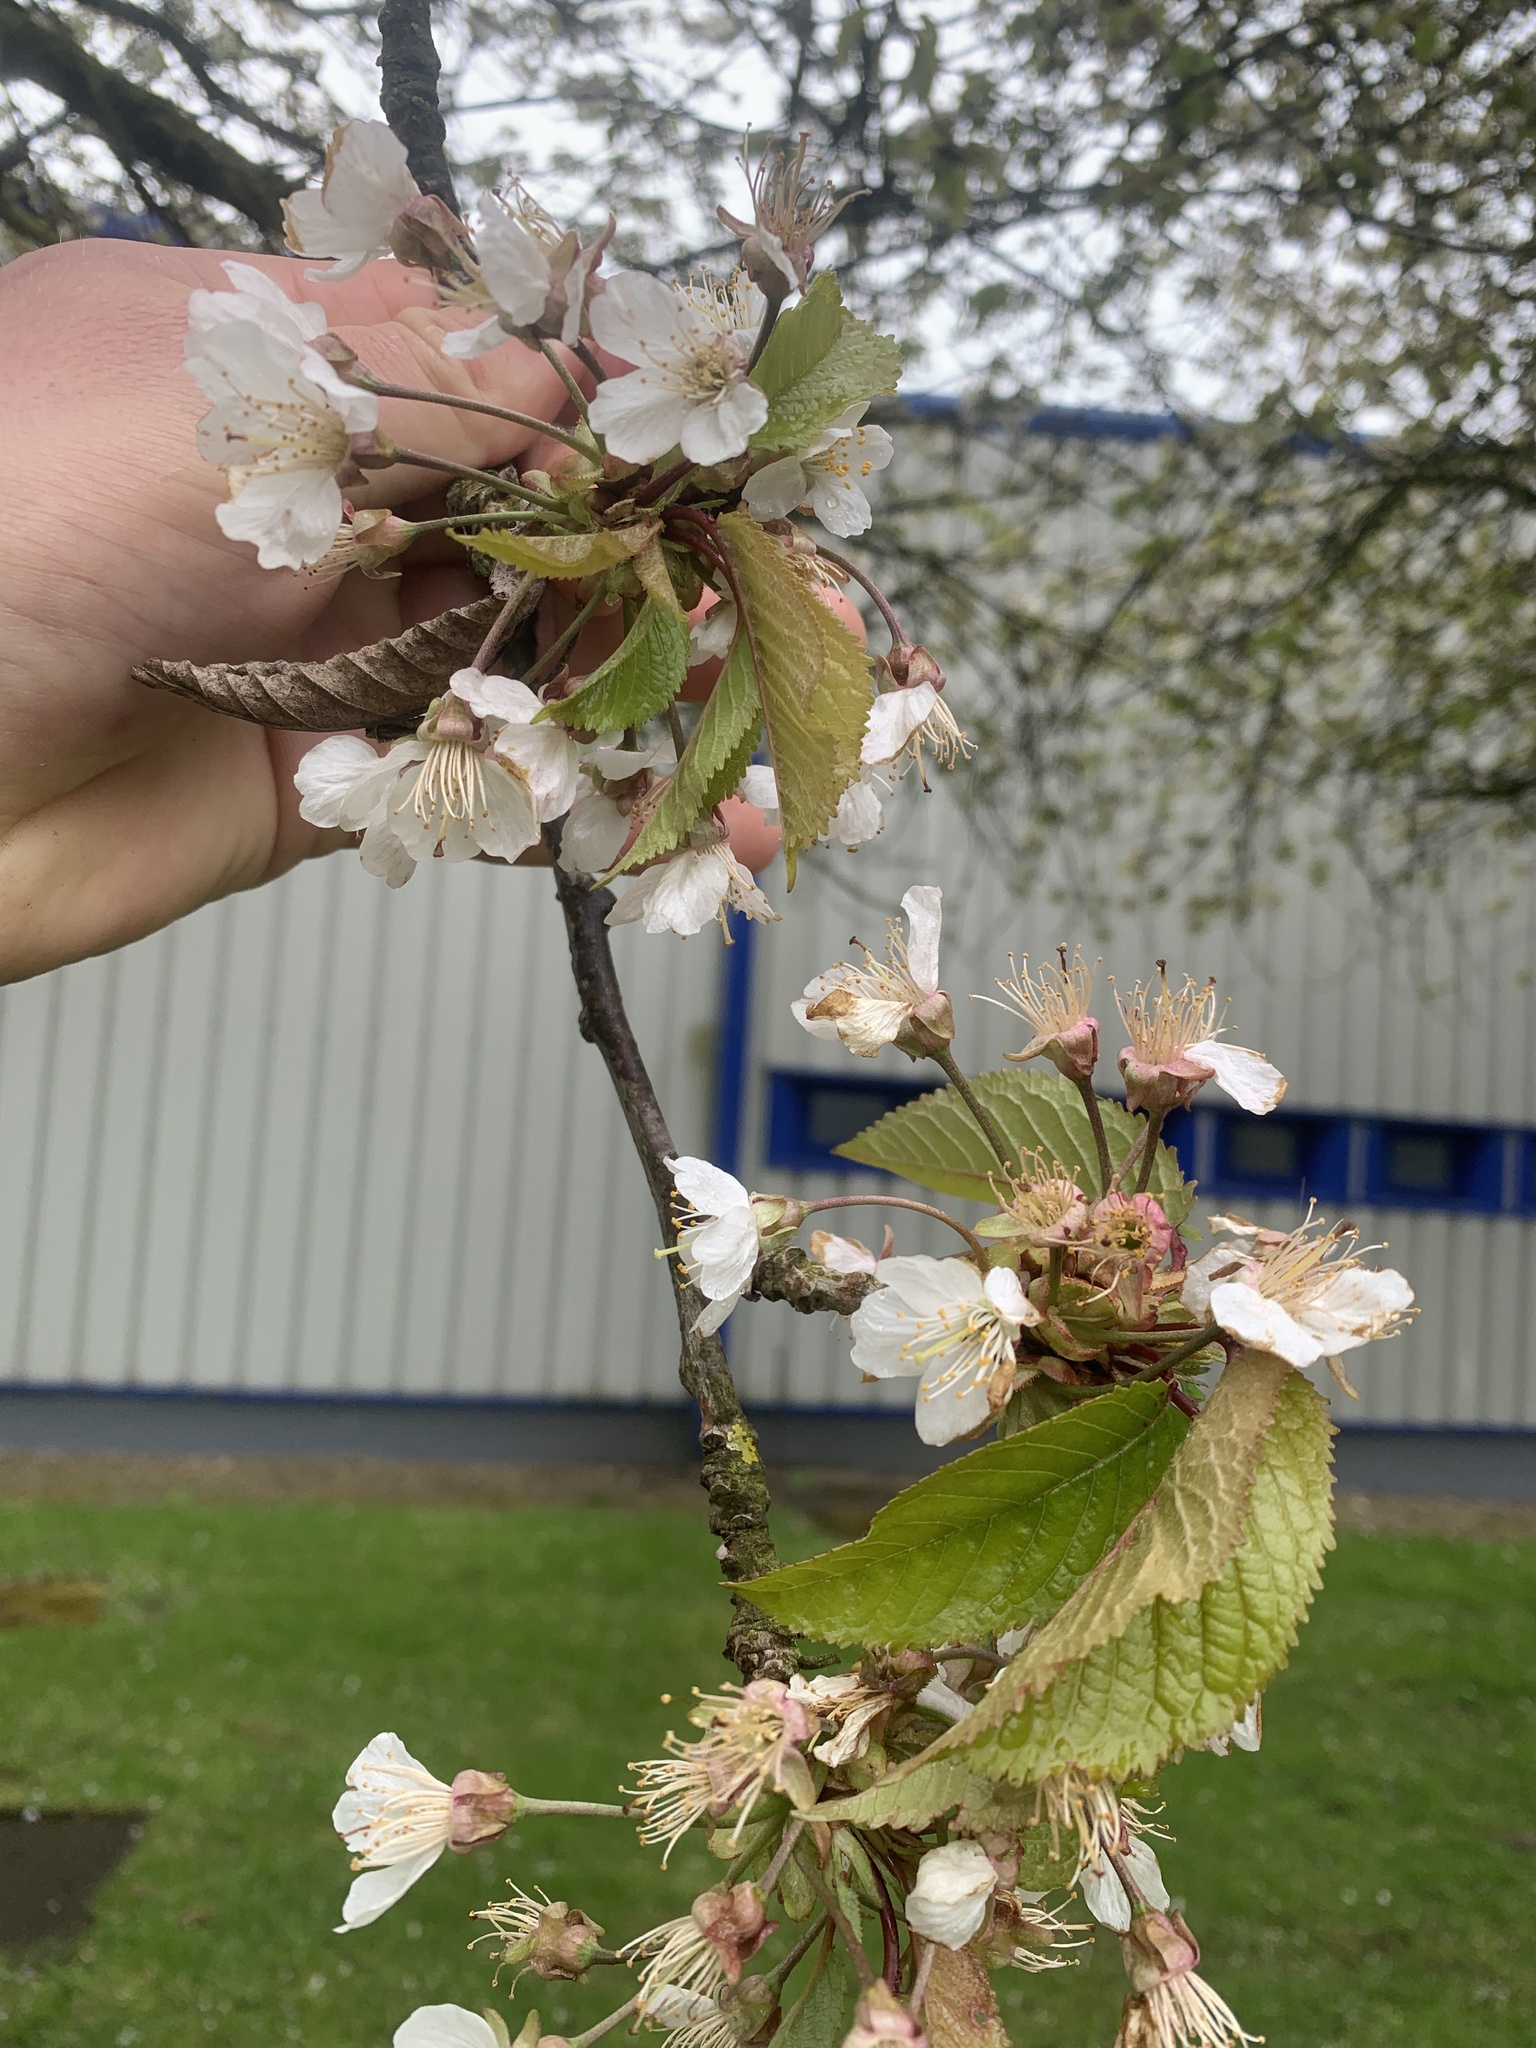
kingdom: Plantae
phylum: Tracheophyta
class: Magnoliopsida
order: Rosales
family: Rosaceae
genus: Prunus
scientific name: Prunus avium
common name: Sweet cherry
